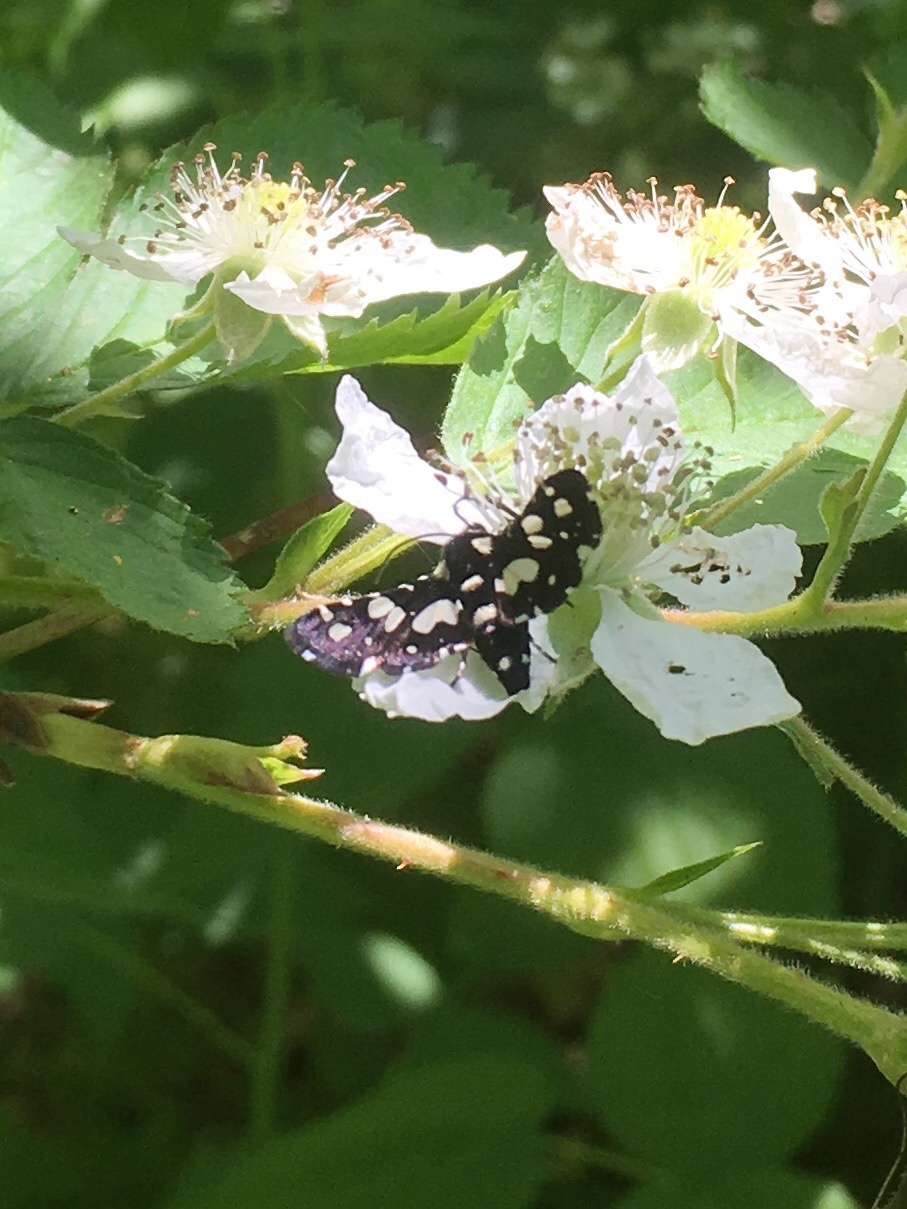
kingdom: Animalia
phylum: Arthropoda
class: Insecta
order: Lepidoptera
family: Thyrididae
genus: Pseudothyris
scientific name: Pseudothyris sepulchralis
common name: Mournful thyris moth
